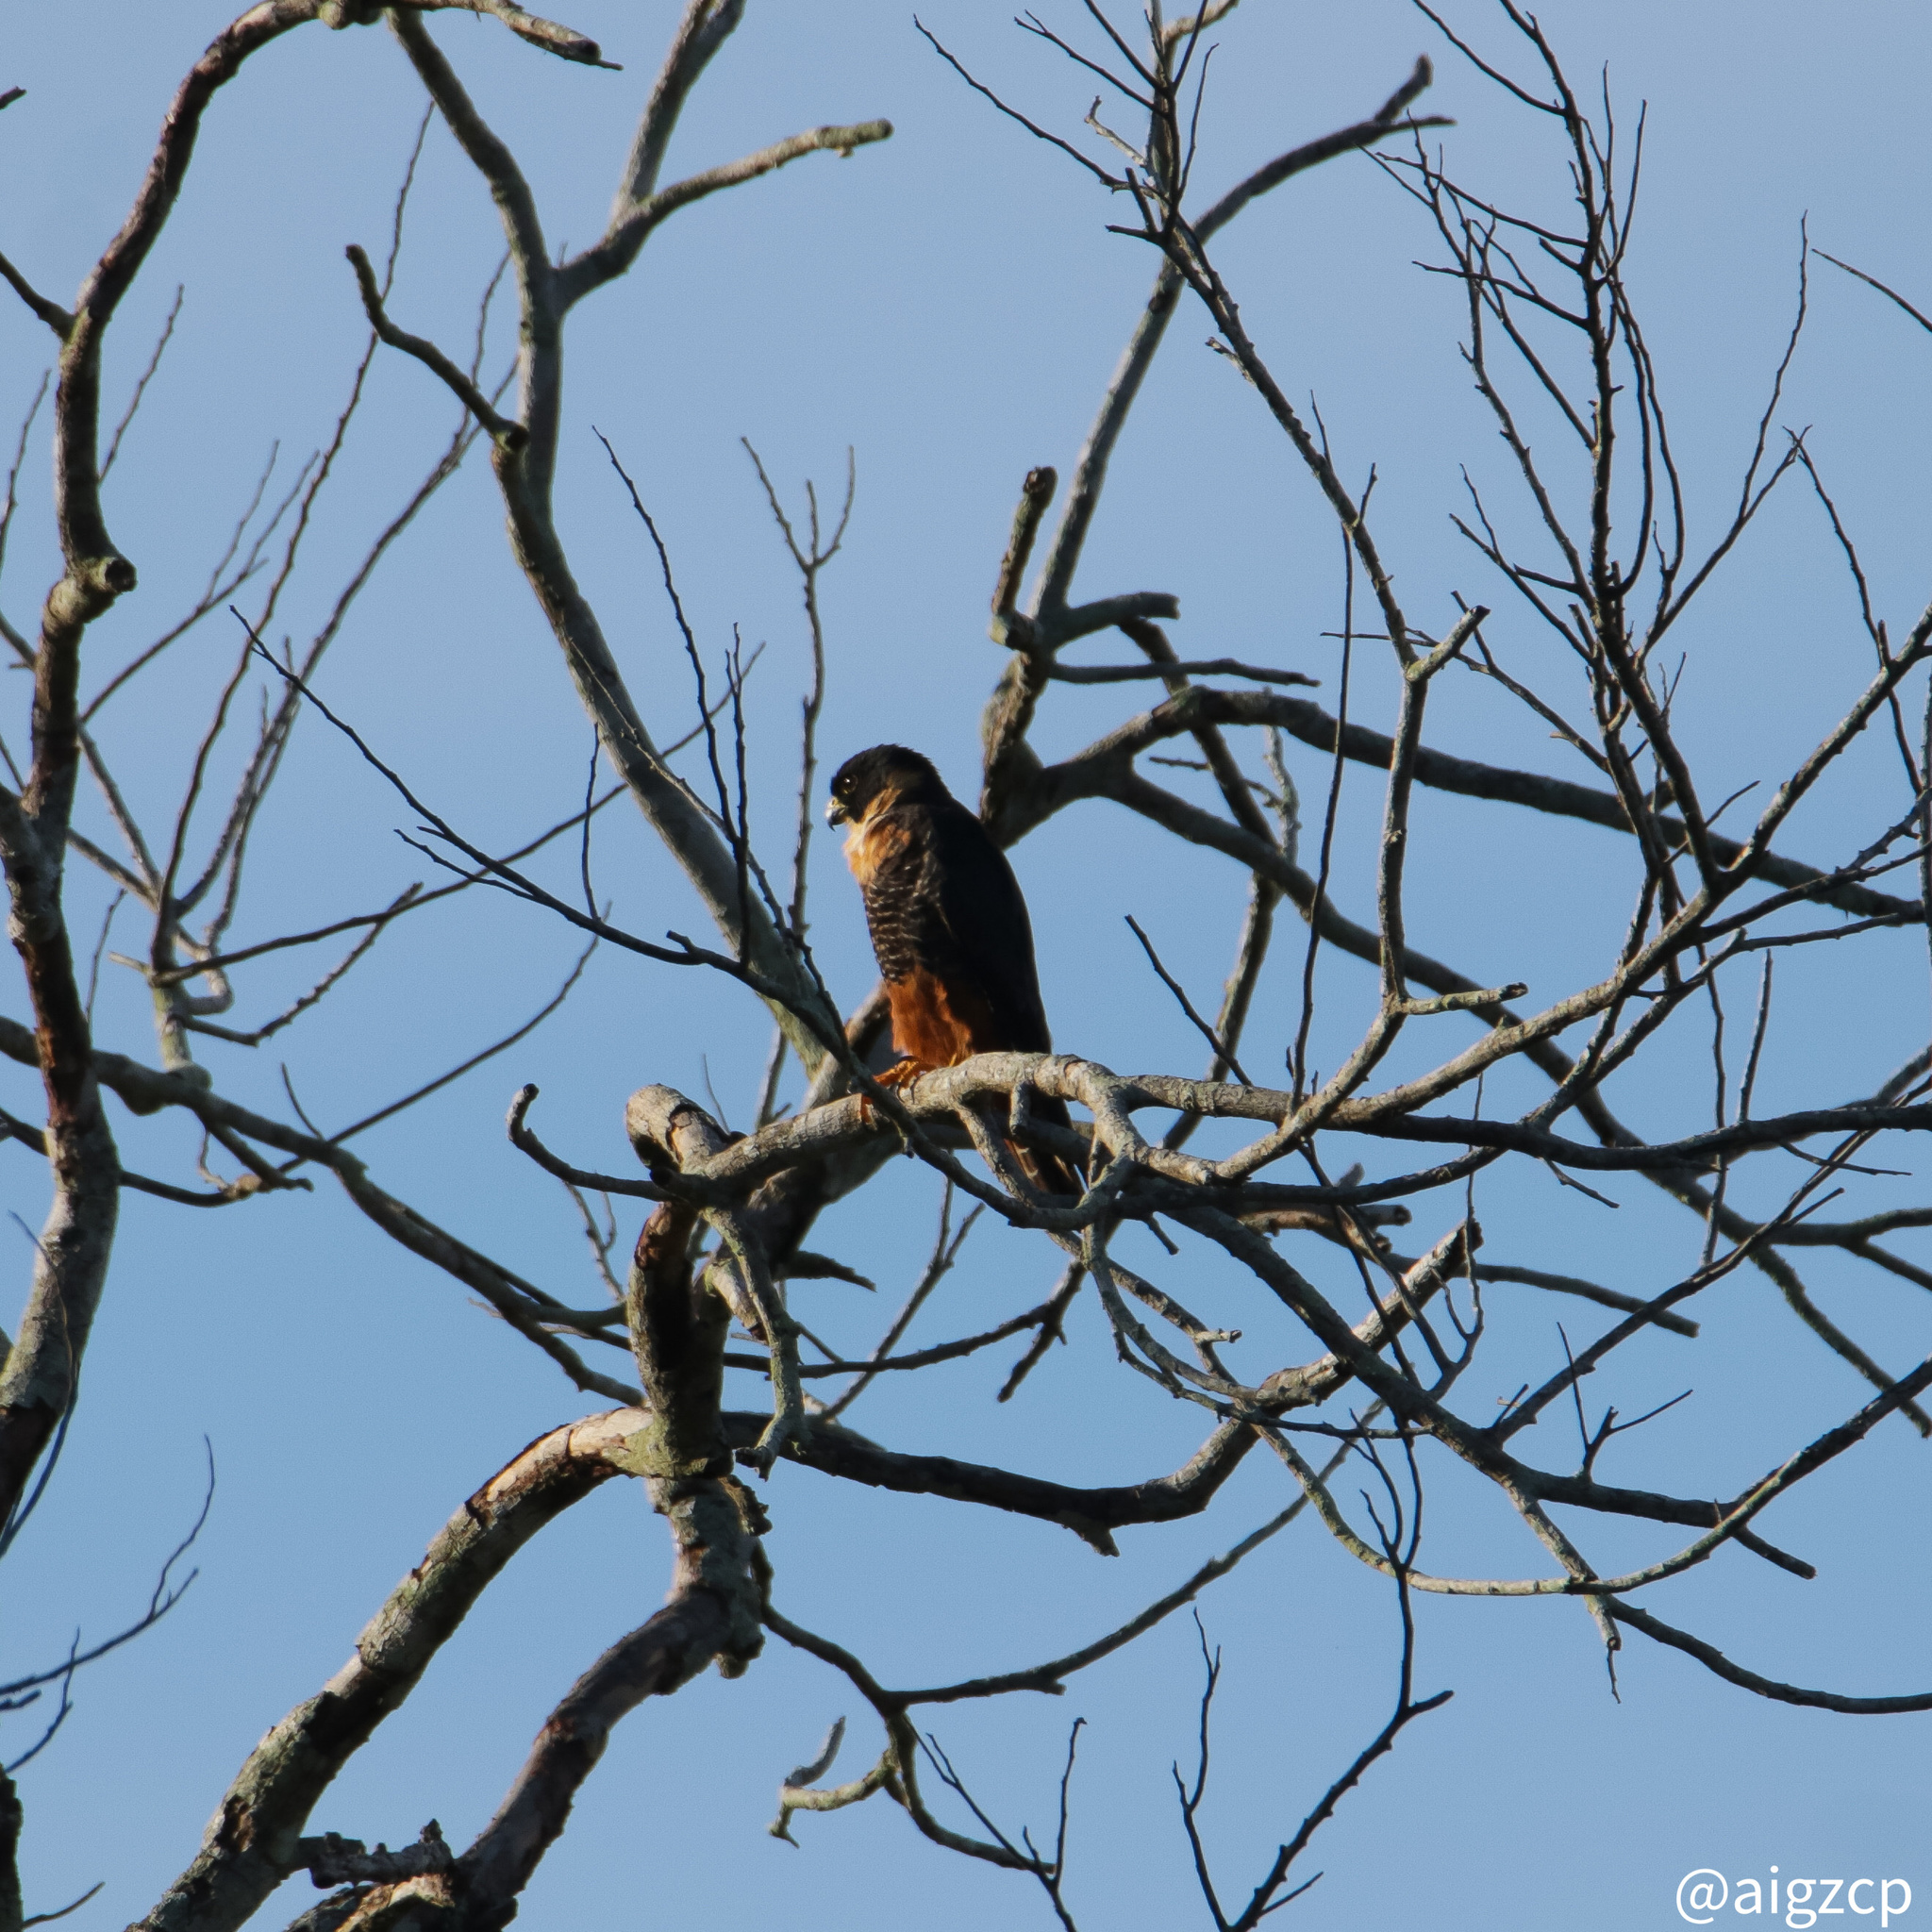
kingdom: Animalia
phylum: Chordata
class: Aves
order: Falconiformes
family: Falconidae
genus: Falco
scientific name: Falco rufigularis
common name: Bat falcon
